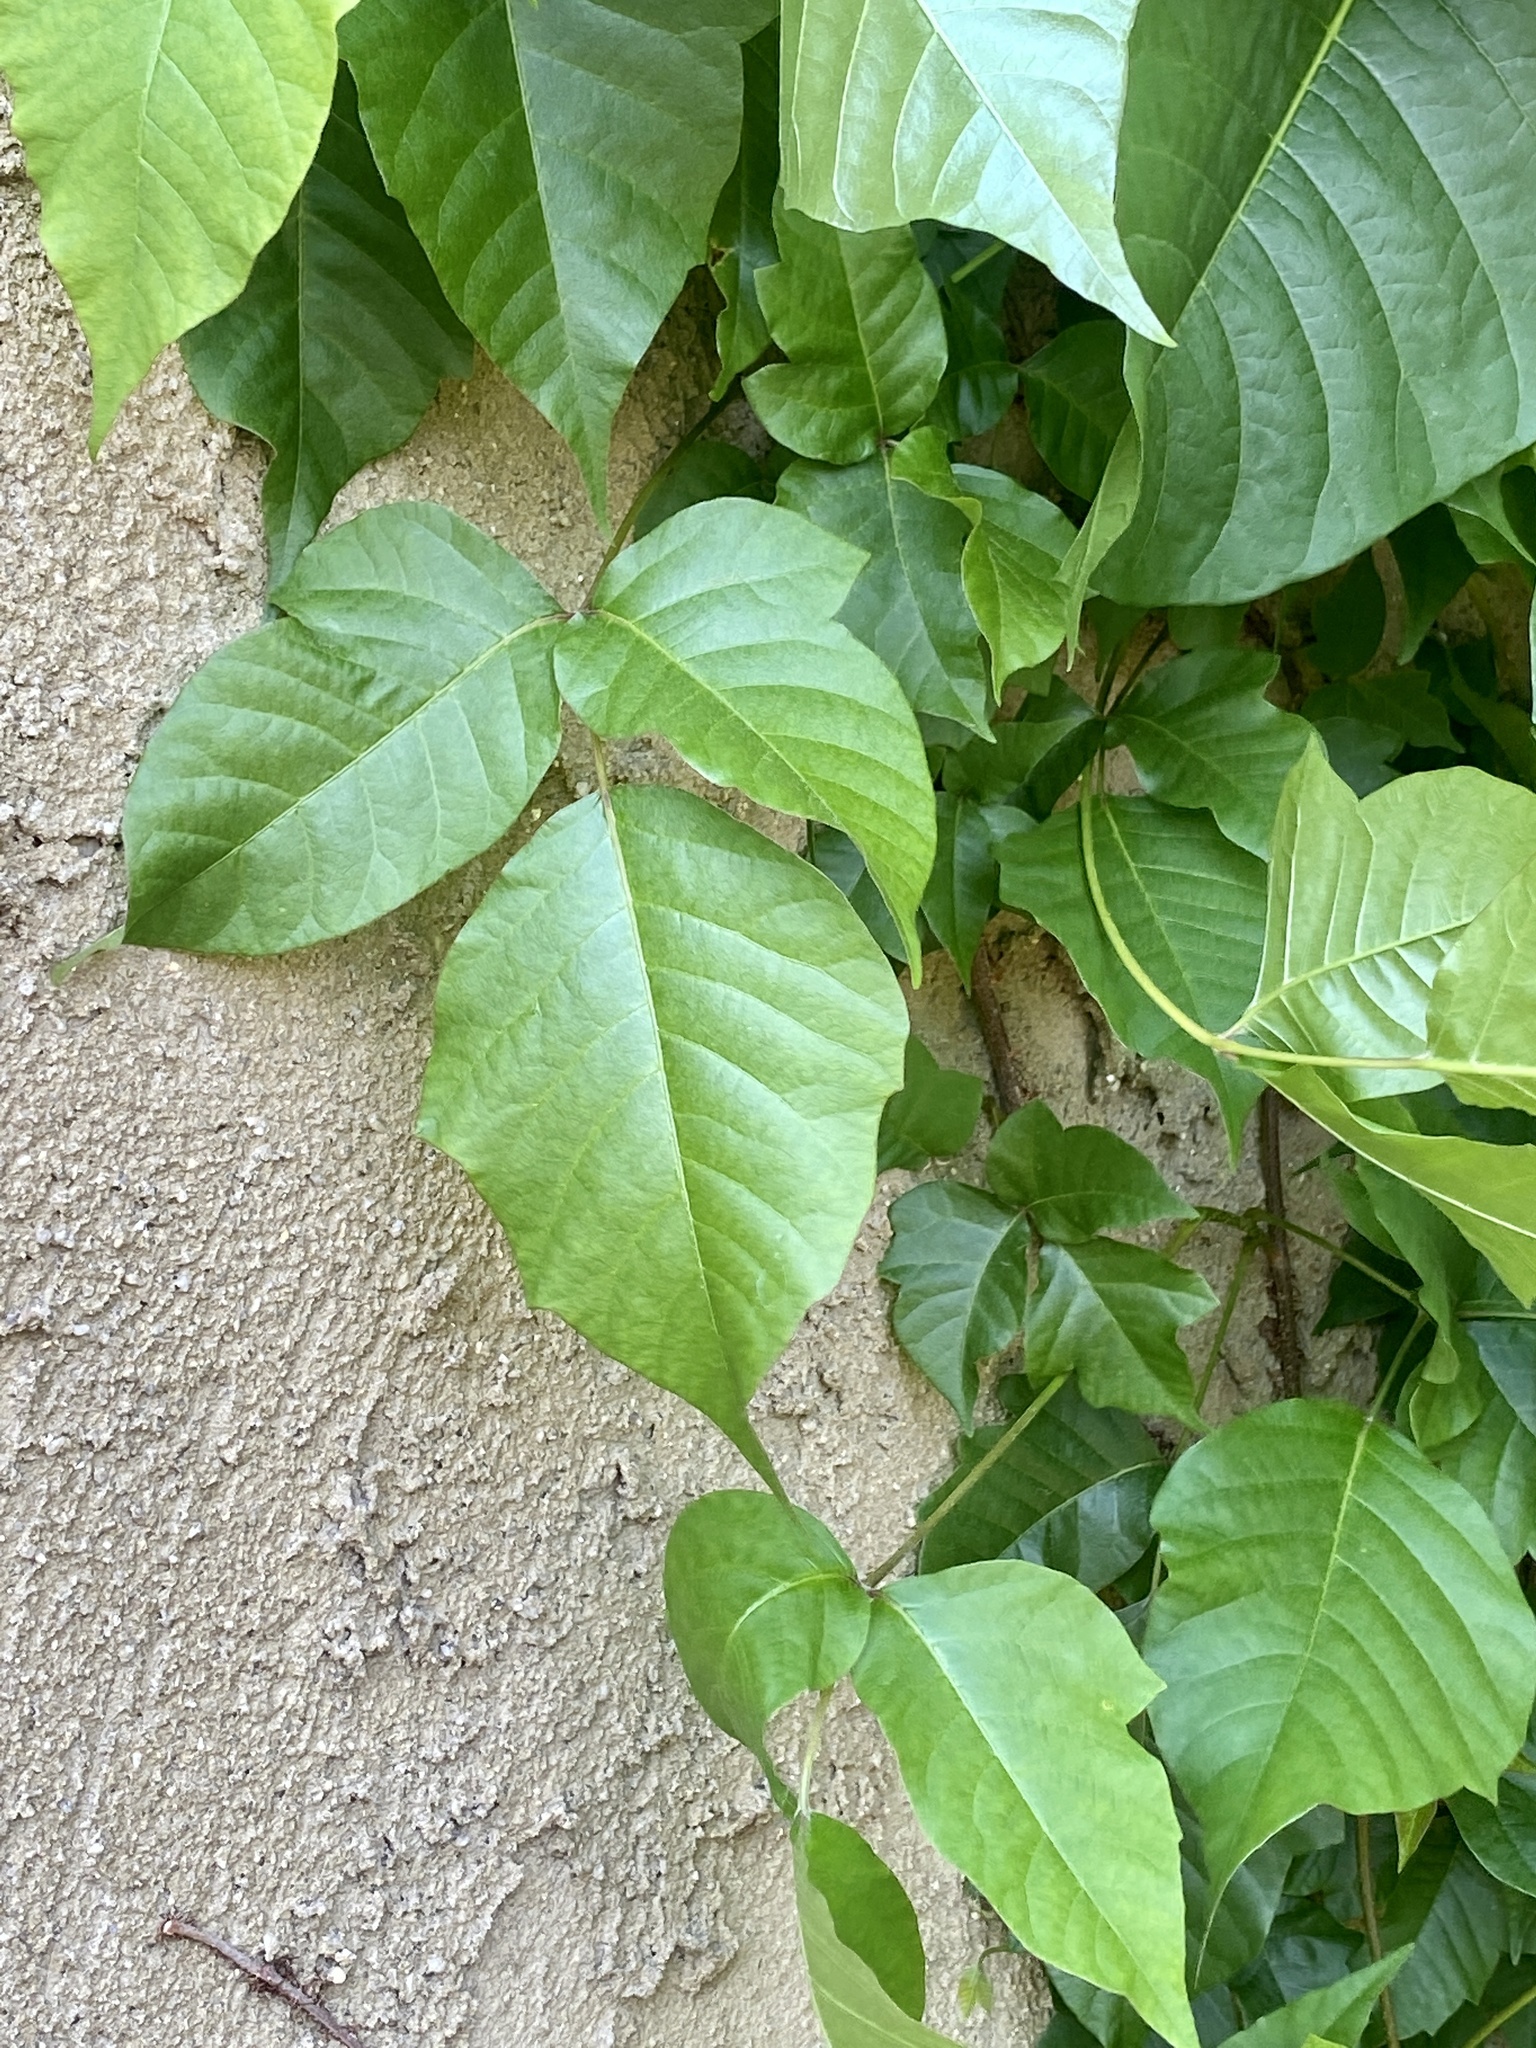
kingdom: Plantae
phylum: Tracheophyta
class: Magnoliopsida
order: Sapindales
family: Anacardiaceae
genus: Toxicodendron
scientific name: Toxicodendron radicans
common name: Poison ivy
